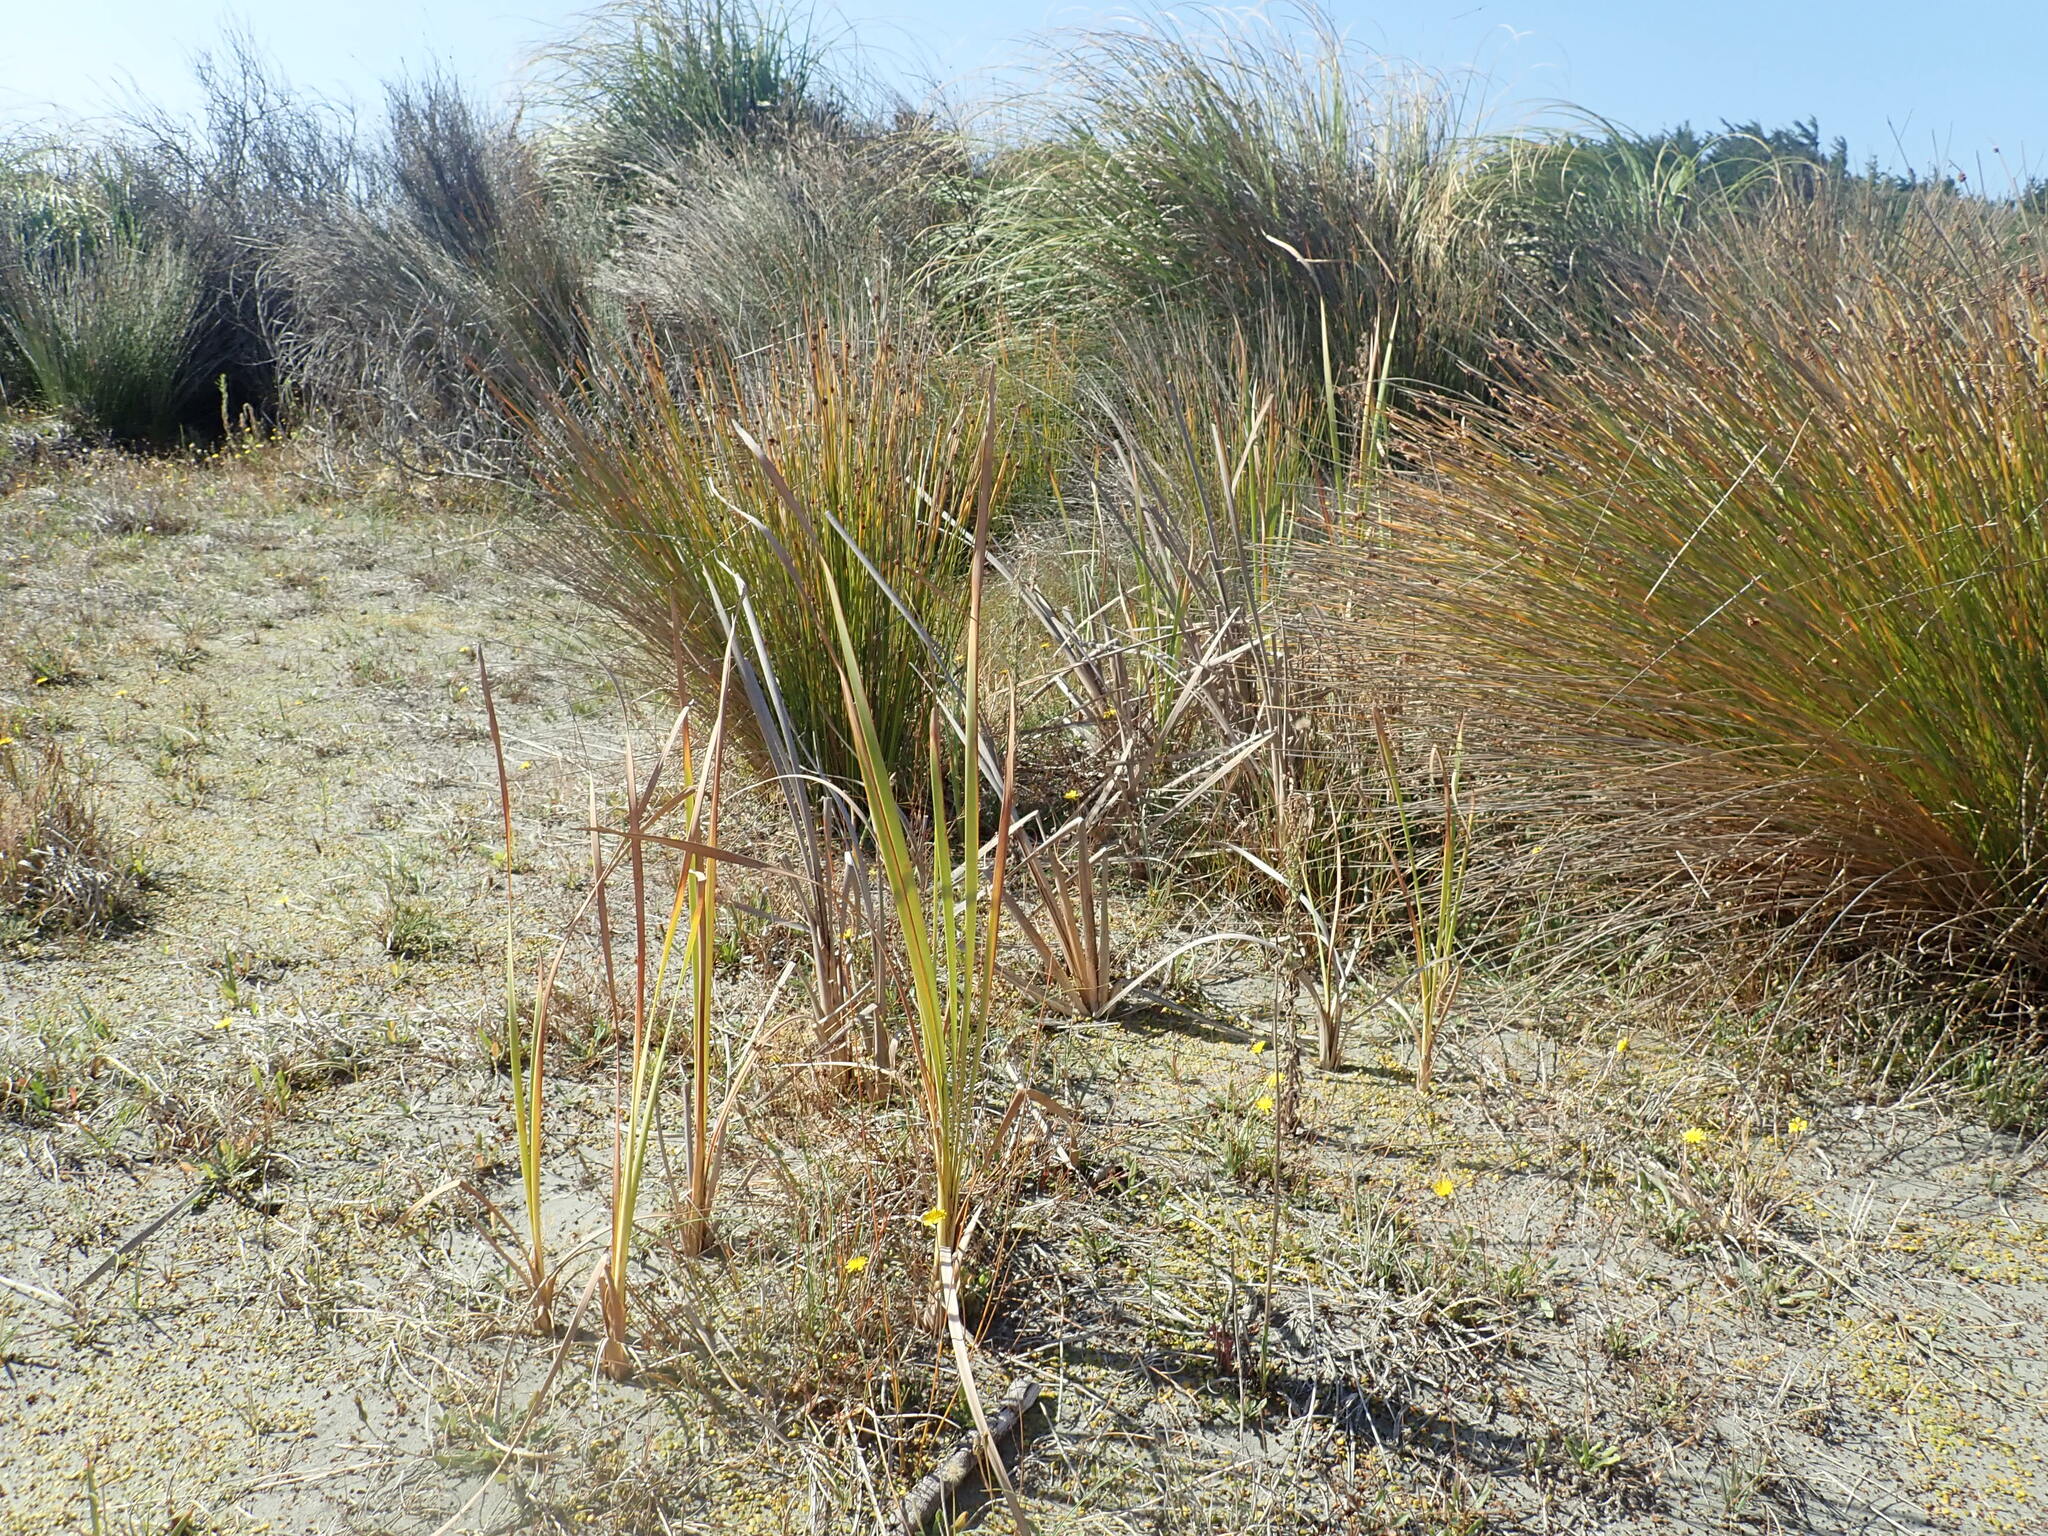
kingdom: Plantae
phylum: Tracheophyta
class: Liliopsida
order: Poales
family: Typhaceae
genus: Typha
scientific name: Typha orientalis
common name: Bullrush
